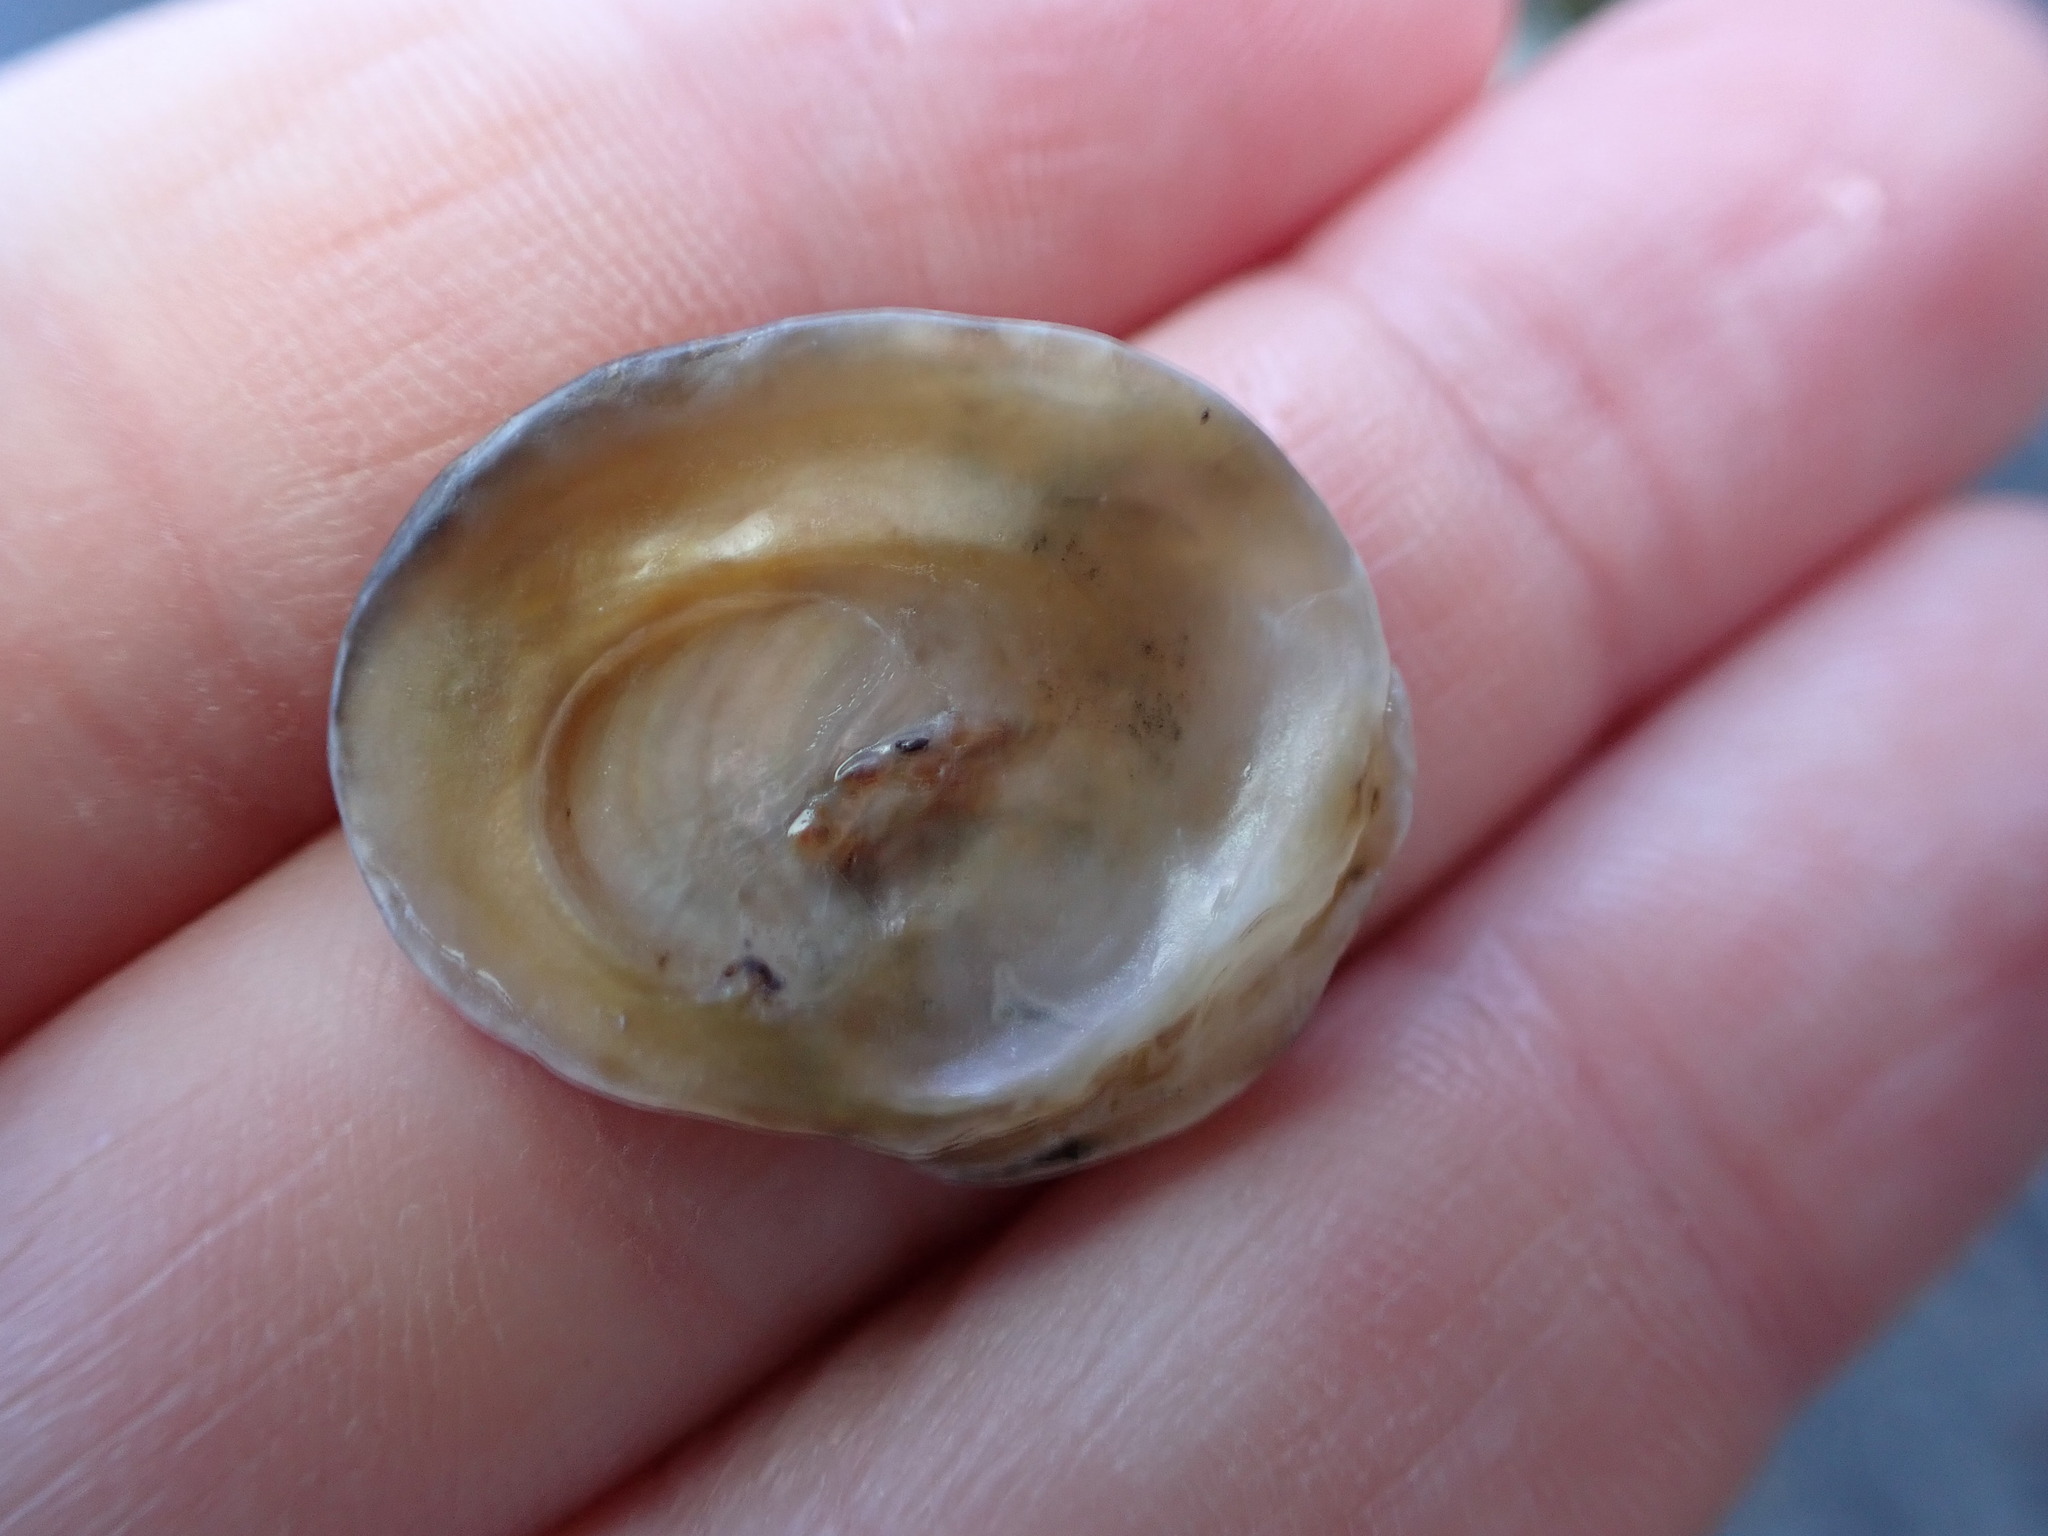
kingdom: Animalia
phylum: Mollusca
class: Bivalvia
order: Ostreida
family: Ostreidae
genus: Ostrea
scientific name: Ostrea chilensis
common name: Chilean oyster
